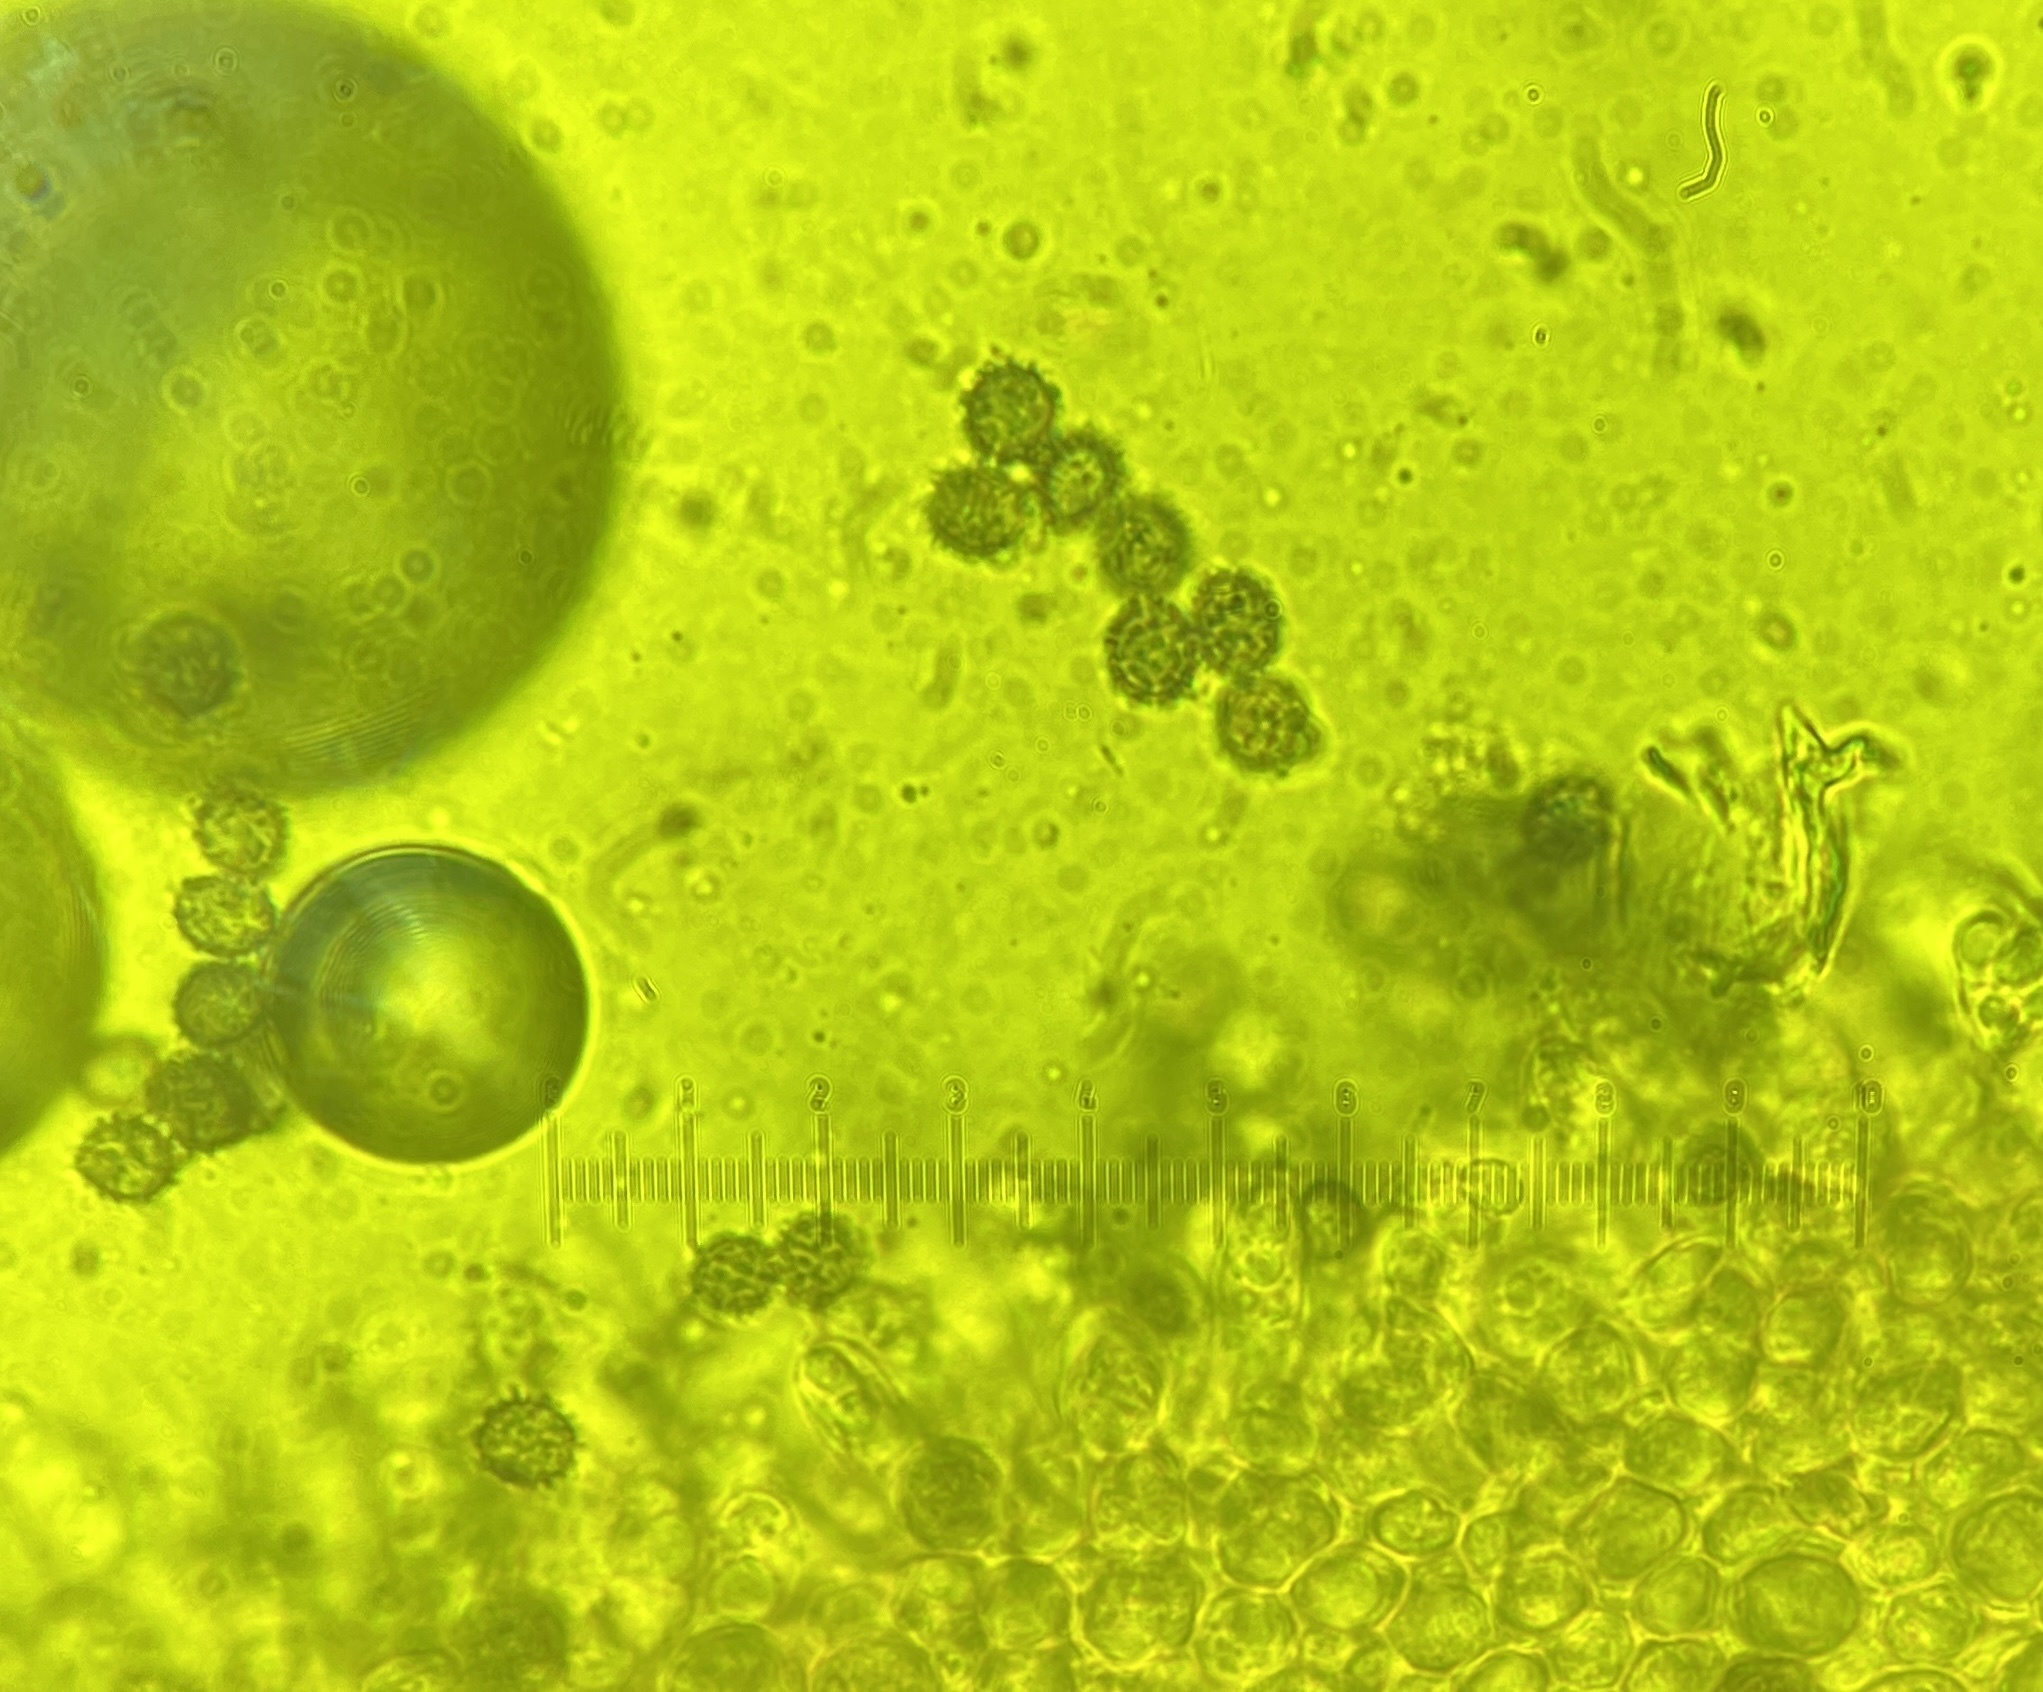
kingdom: Fungi
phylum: Basidiomycota
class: Agaricomycetes
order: Russulales
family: Russulaceae
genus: Russula
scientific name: Russula cremeirosea
